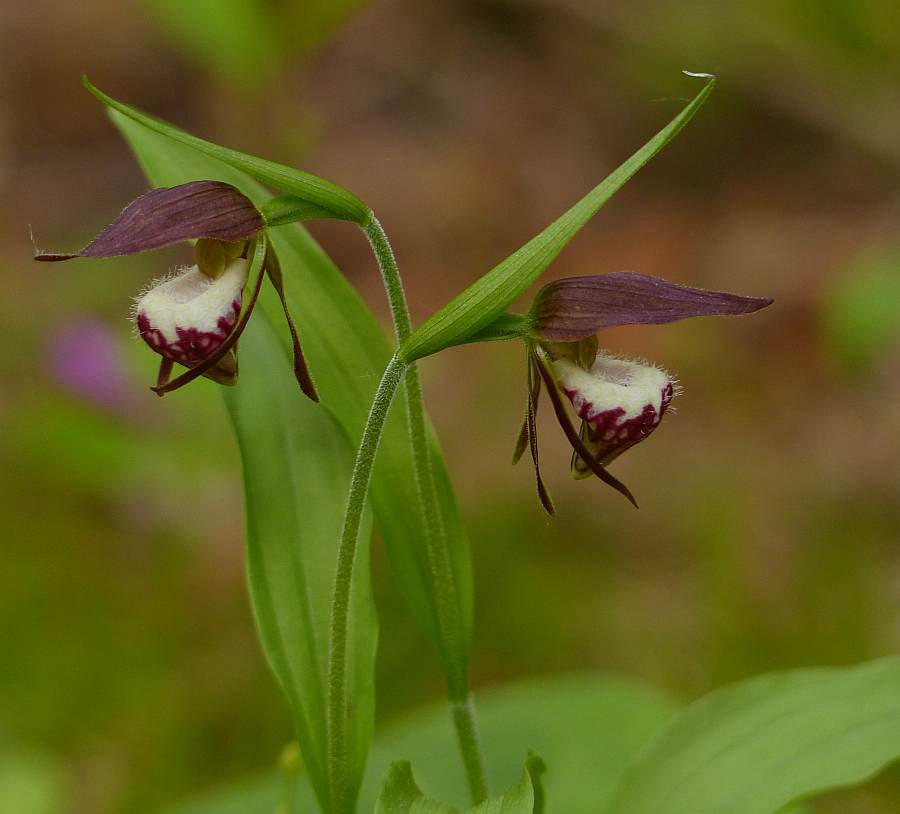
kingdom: Plantae
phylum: Tracheophyta
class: Liliopsida
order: Asparagales
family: Orchidaceae
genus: Cypripedium
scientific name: Cypripedium arietinum
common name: Ram's-head
